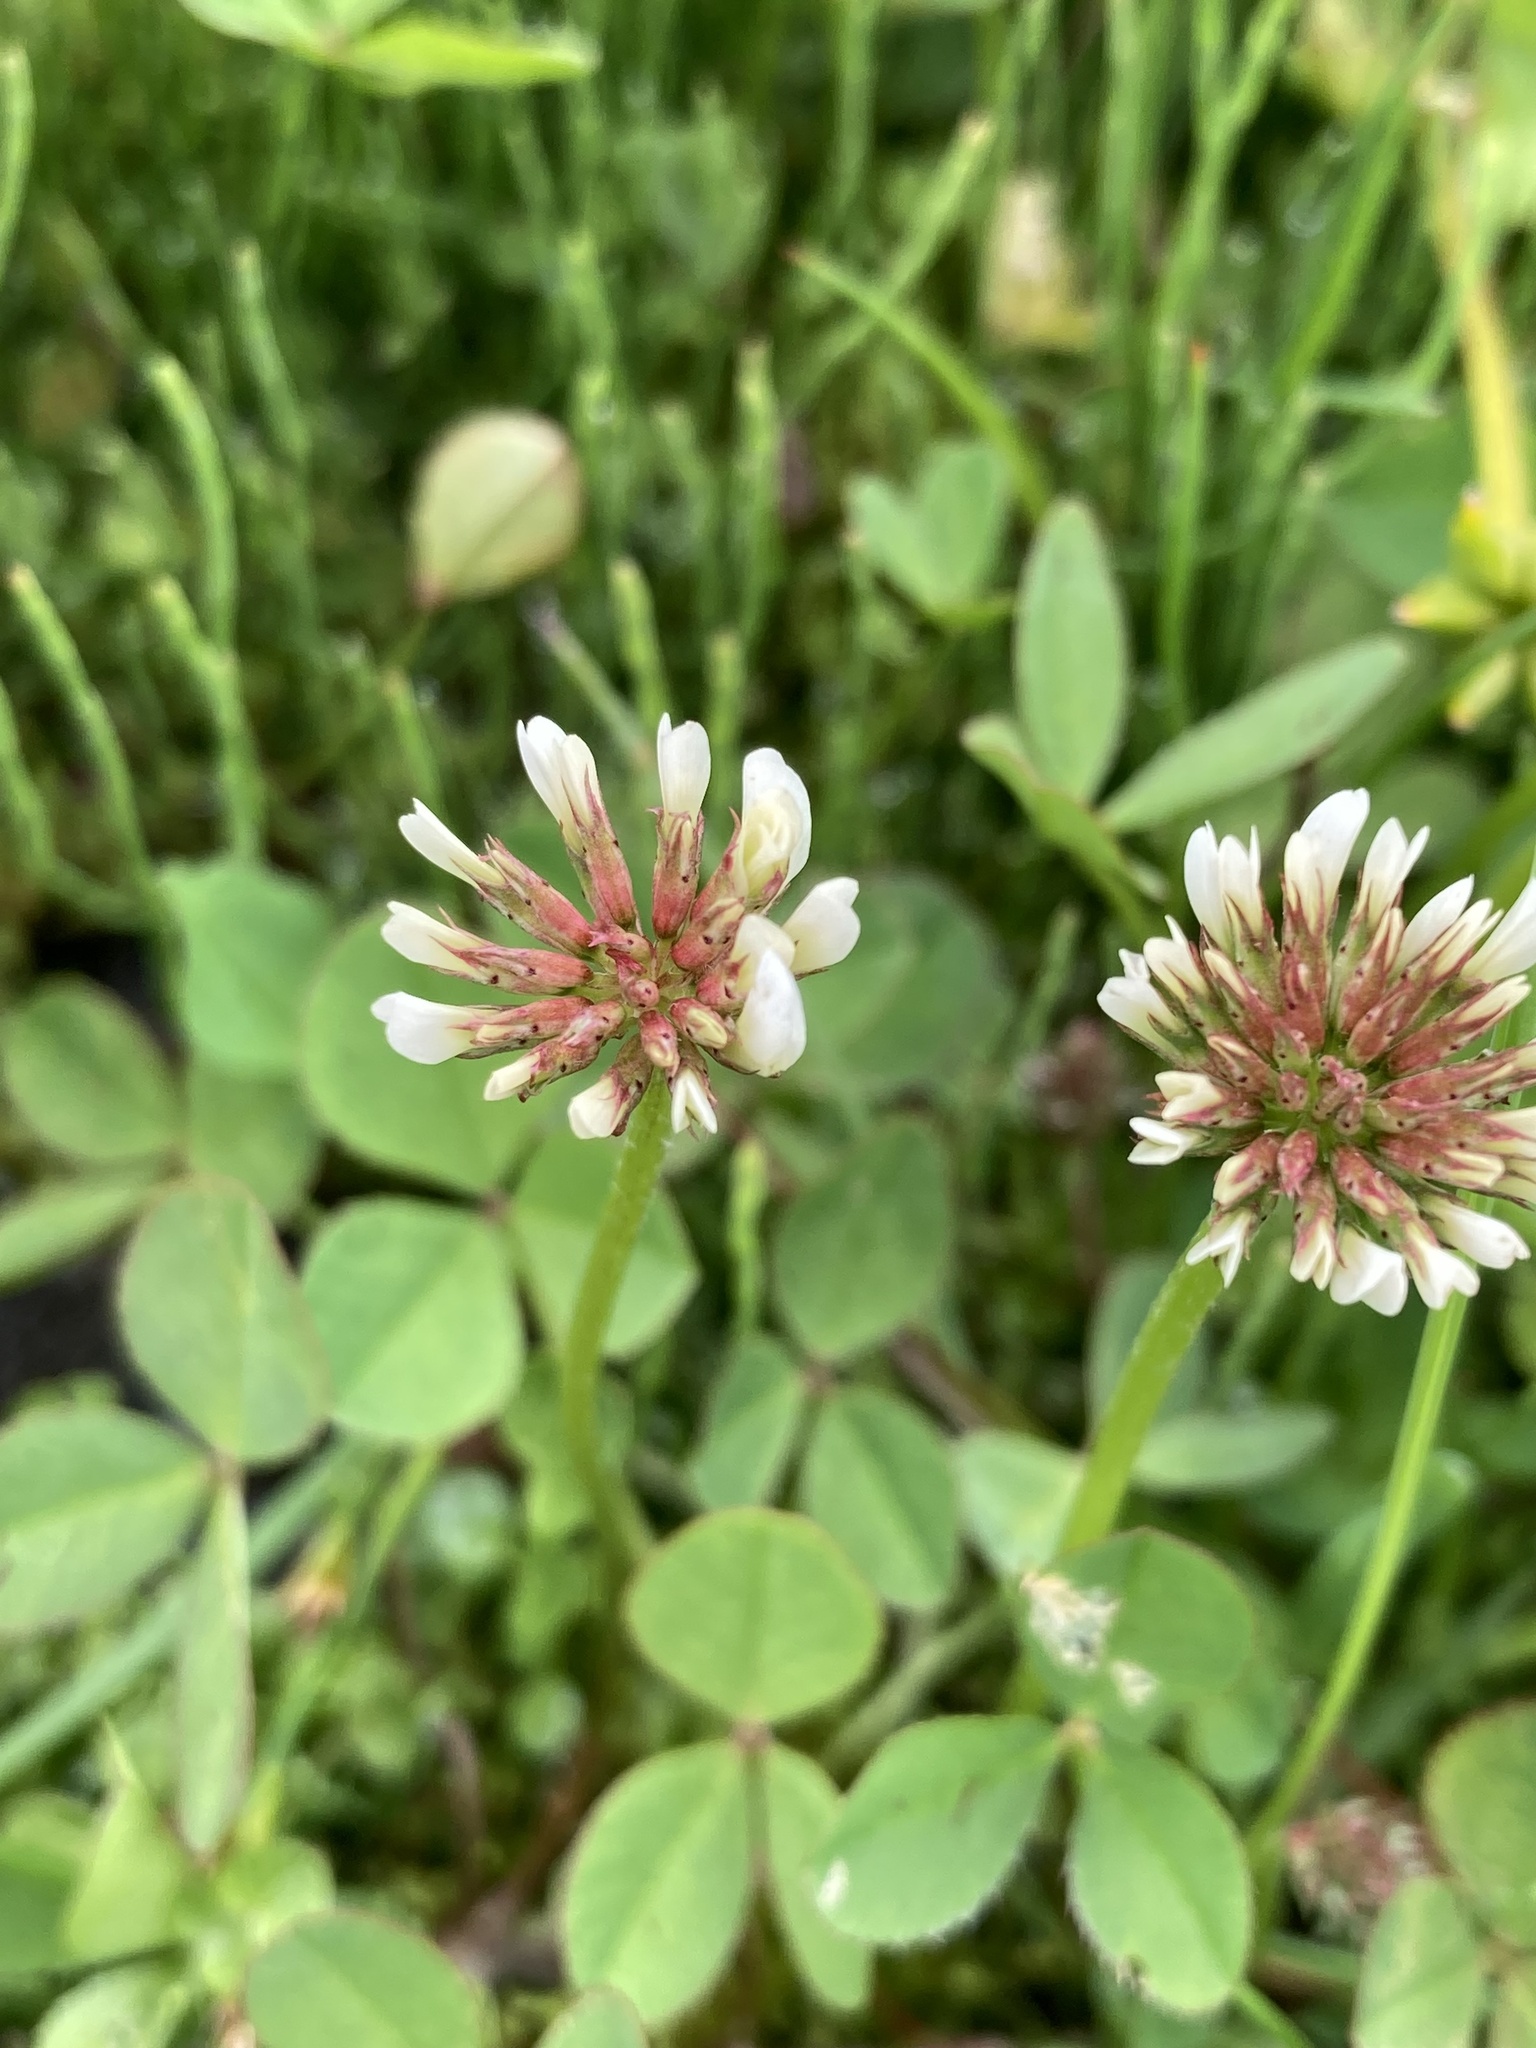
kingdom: Plantae
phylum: Tracheophyta
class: Magnoliopsida
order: Fabales
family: Fabaceae
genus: Trifolium
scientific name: Trifolium repens
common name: White clover
